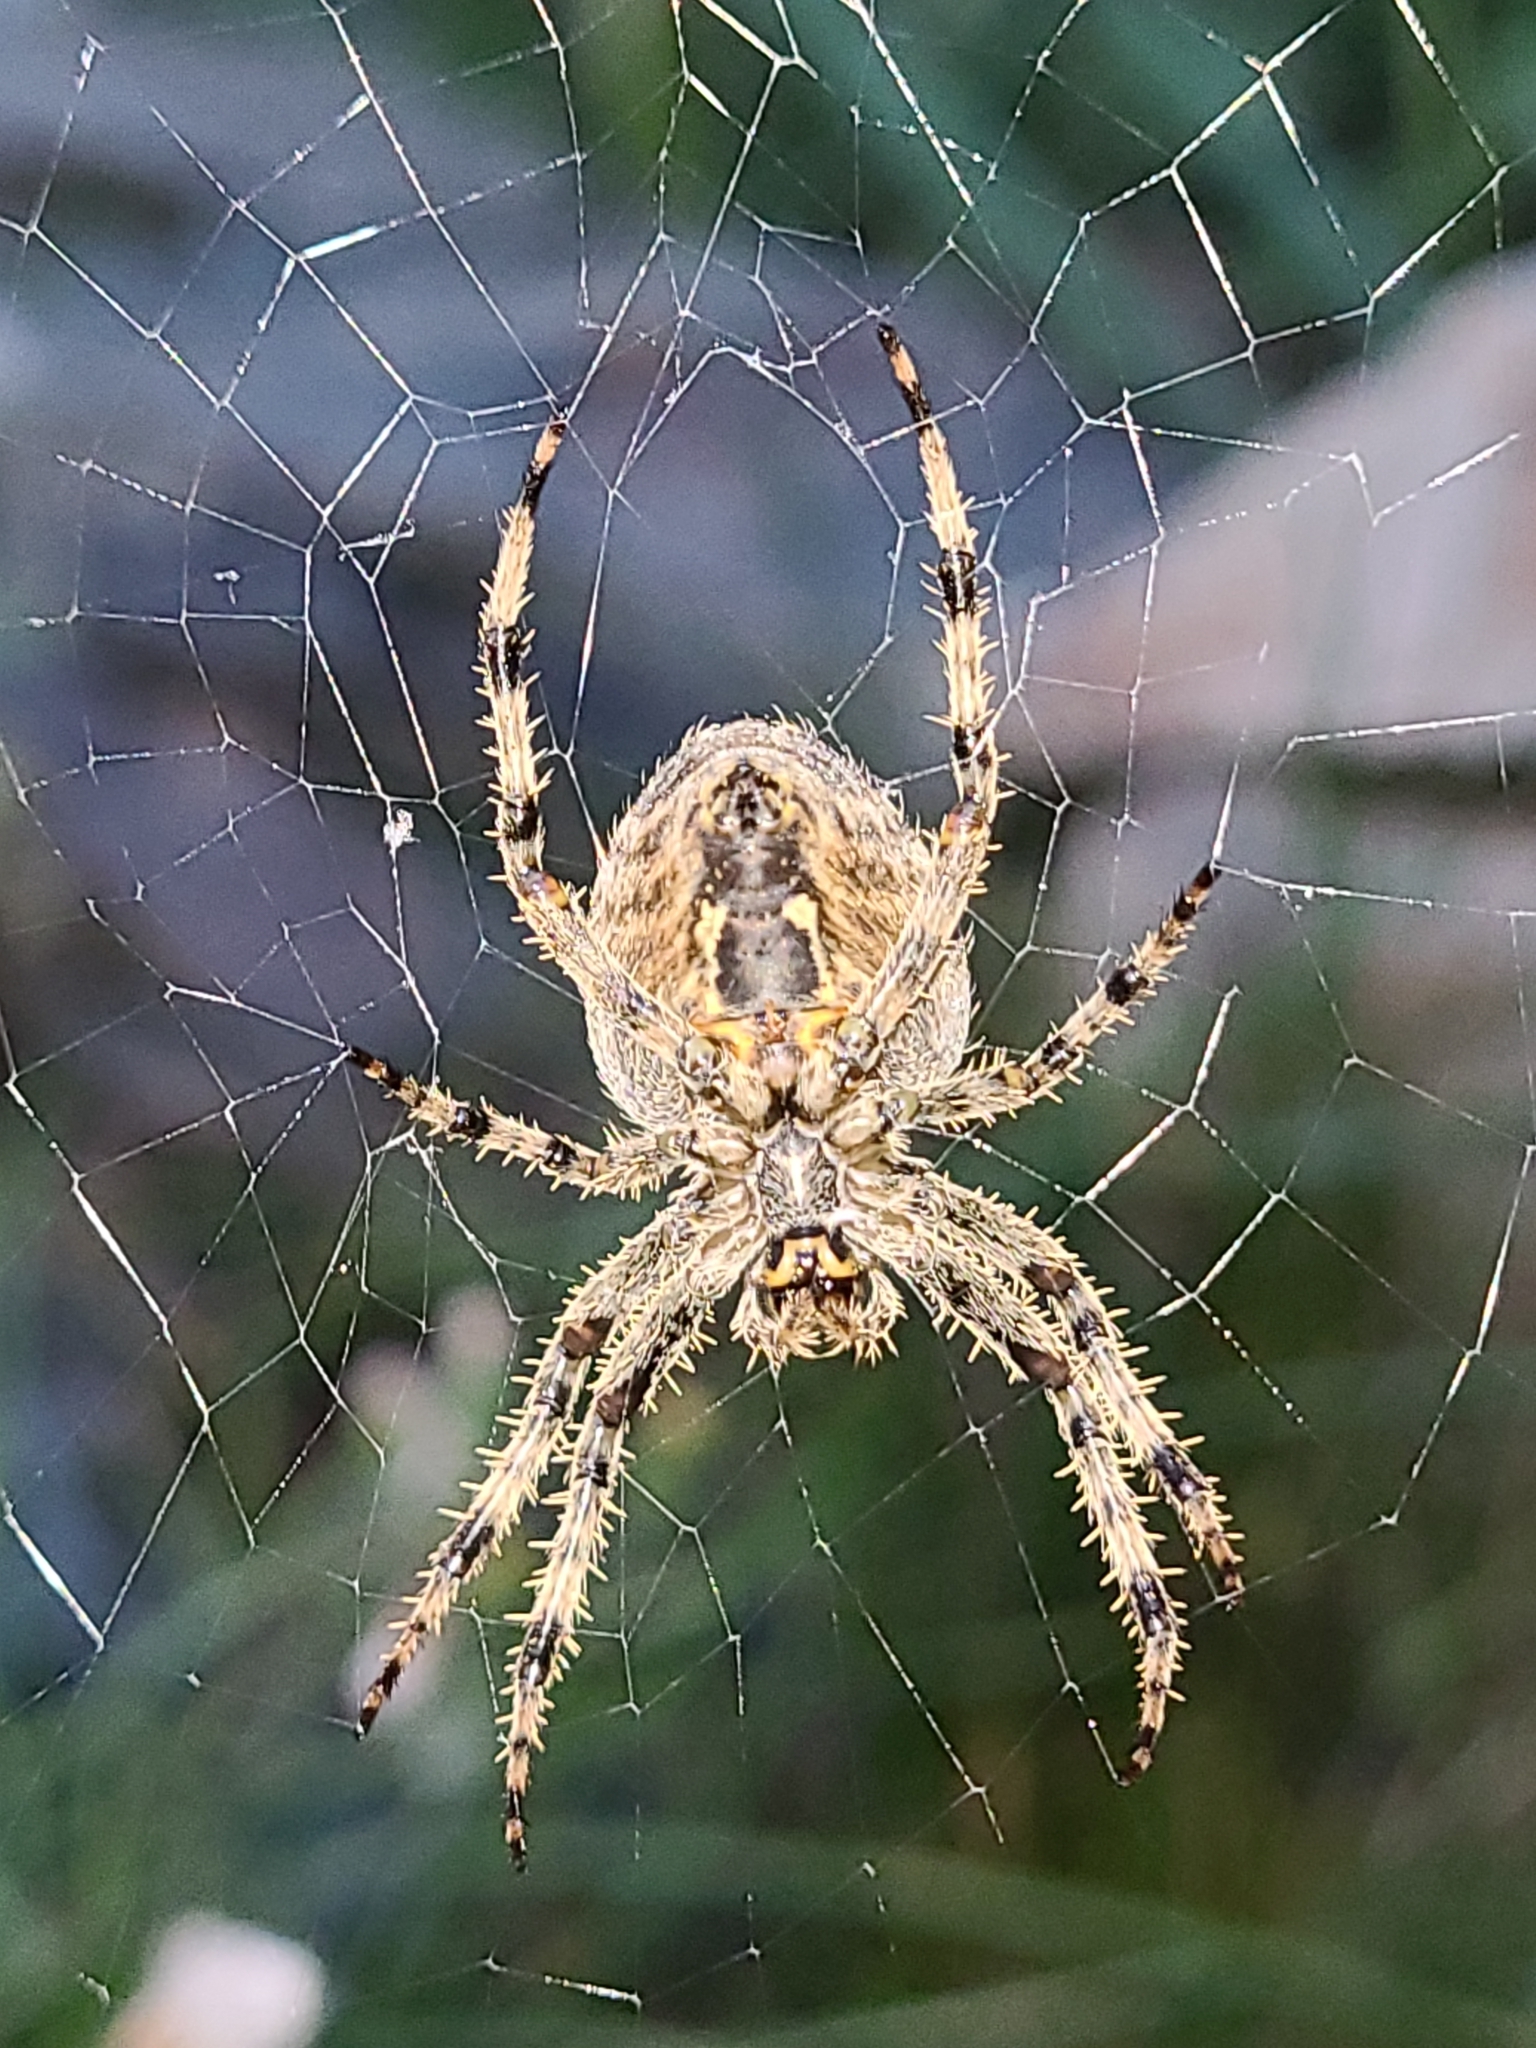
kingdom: Animalia
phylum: Arthropoda
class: Arachnida
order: Araneae
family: Araneidae
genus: Araneus
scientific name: Araneus diadematus
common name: Cross orbweaver
